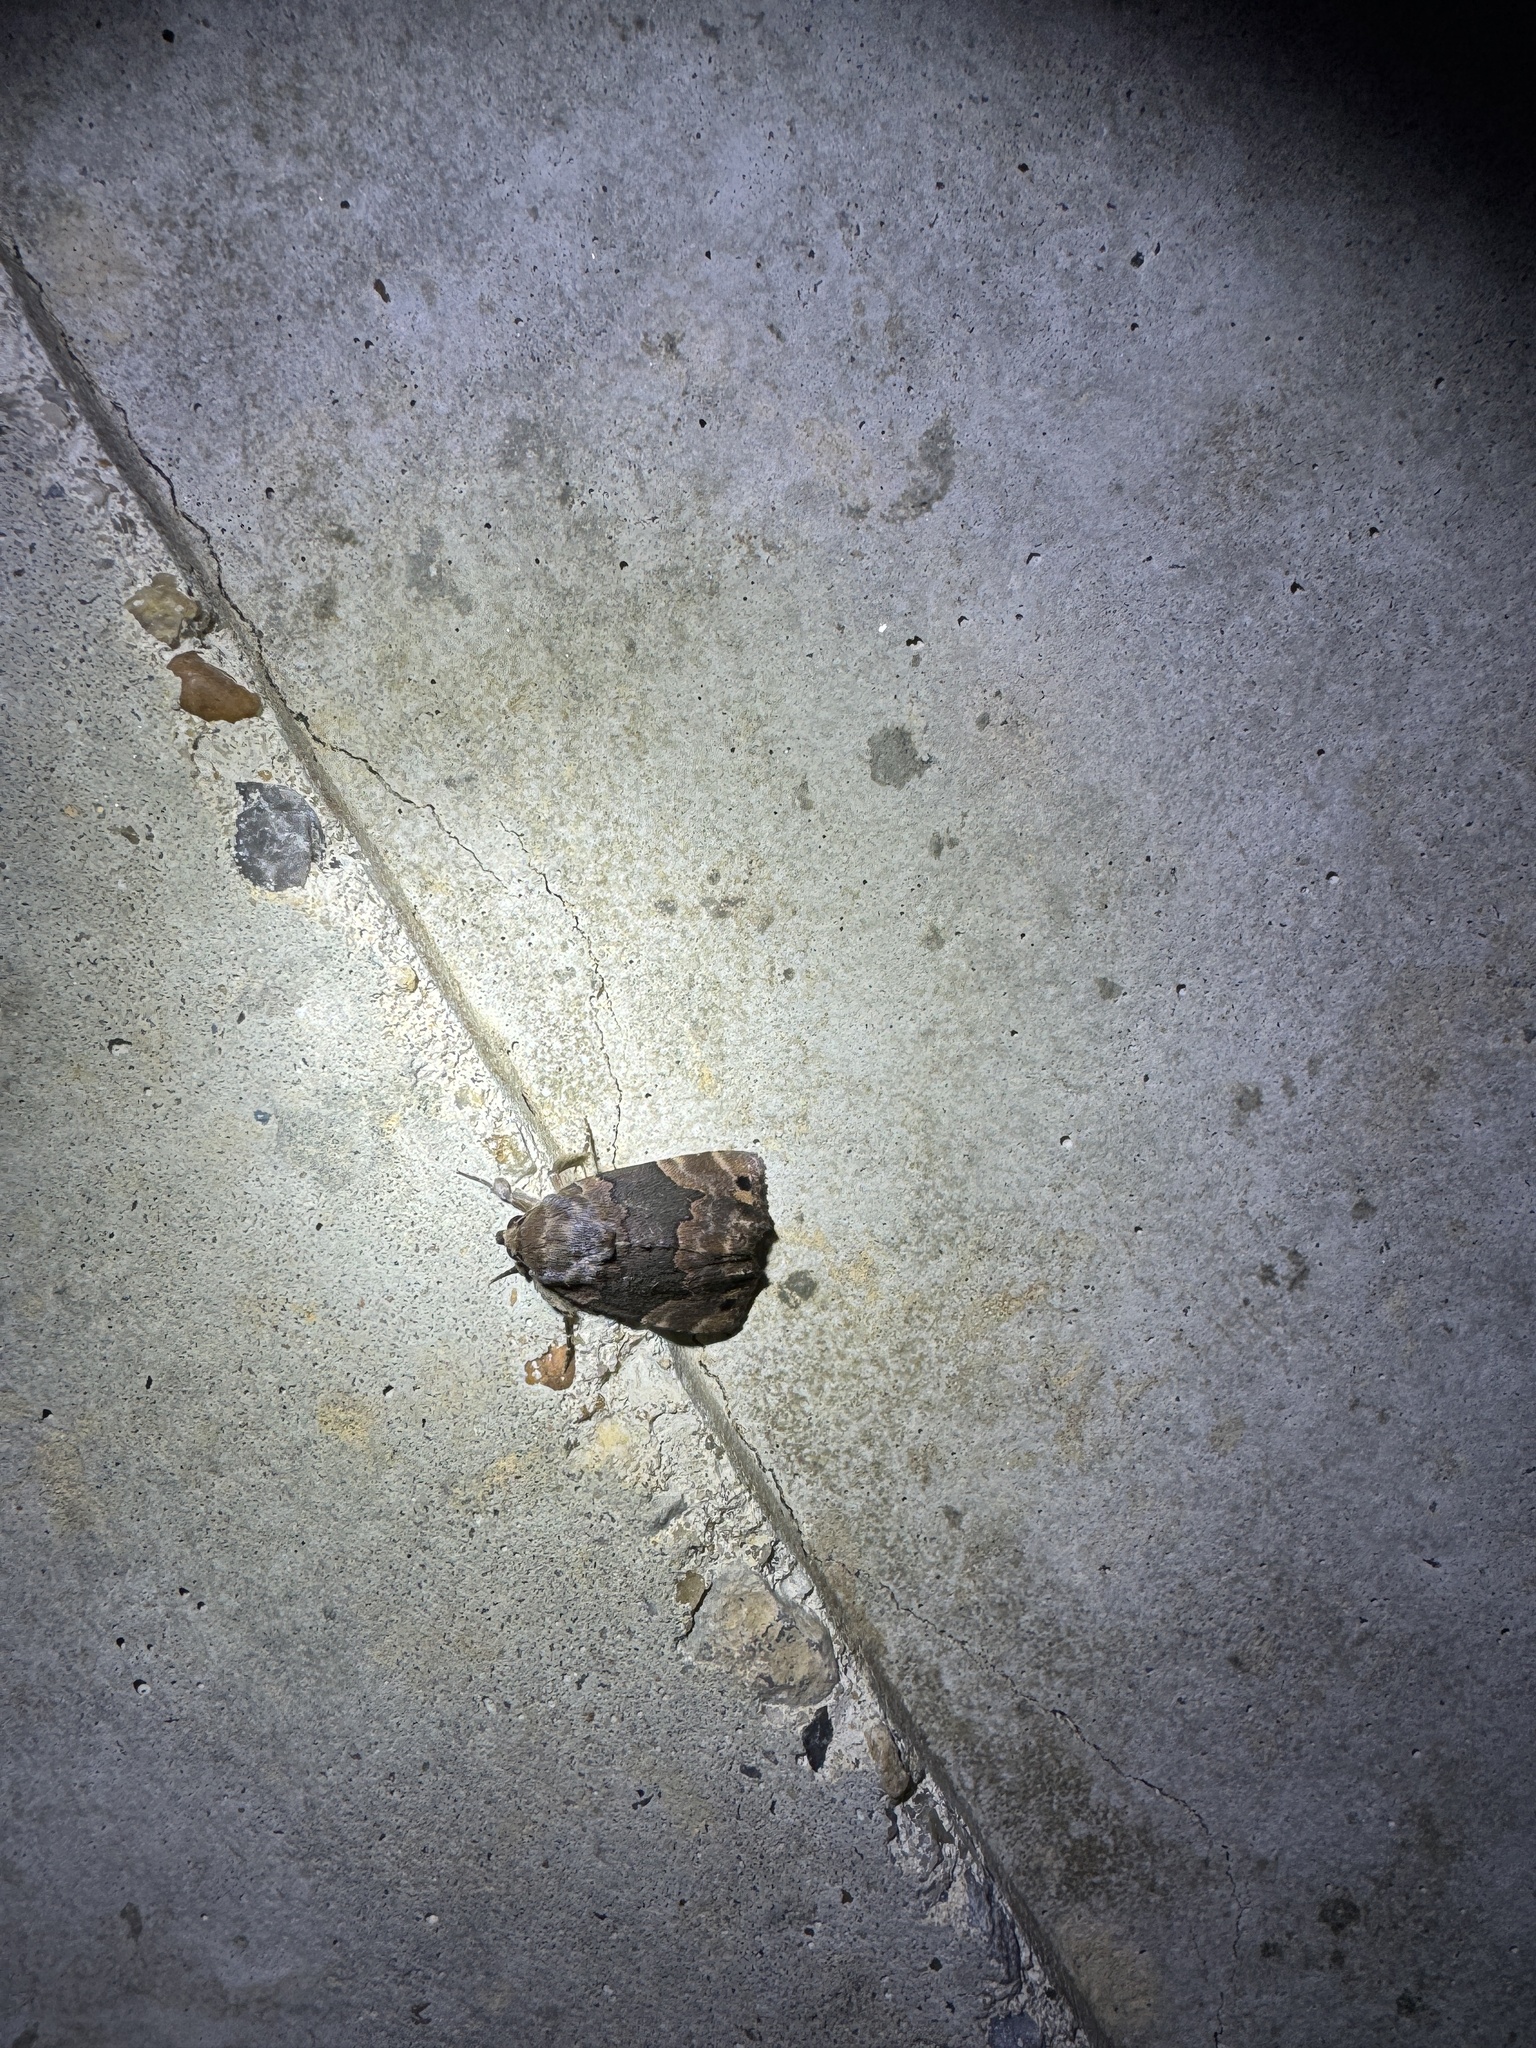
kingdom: Animalia
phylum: Arthropoda
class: Insecta
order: Lepidoptera
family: Erebidae
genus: Dinumma
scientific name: Dinumma deponens
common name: Purplish moth
